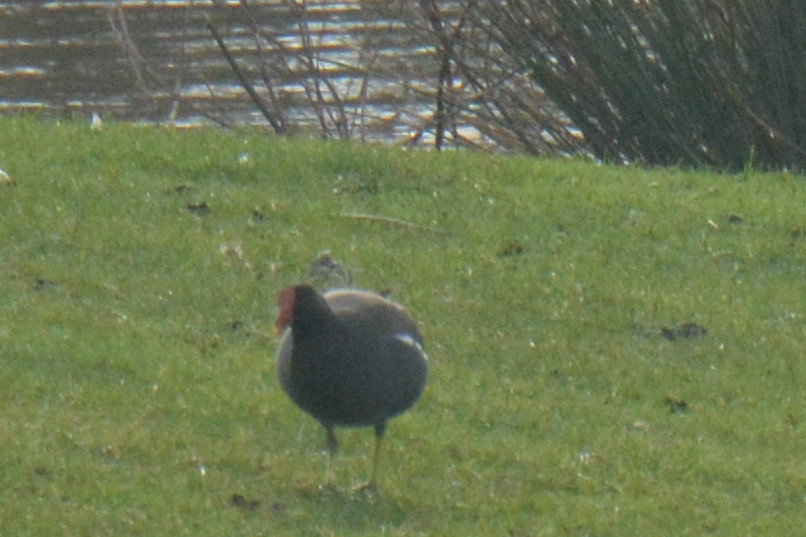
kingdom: Animalia
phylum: Chordata
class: Aves
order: Gruiformes
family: Rallidae
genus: Gallinula
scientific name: Gallinula chloropus
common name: Common moorhen
